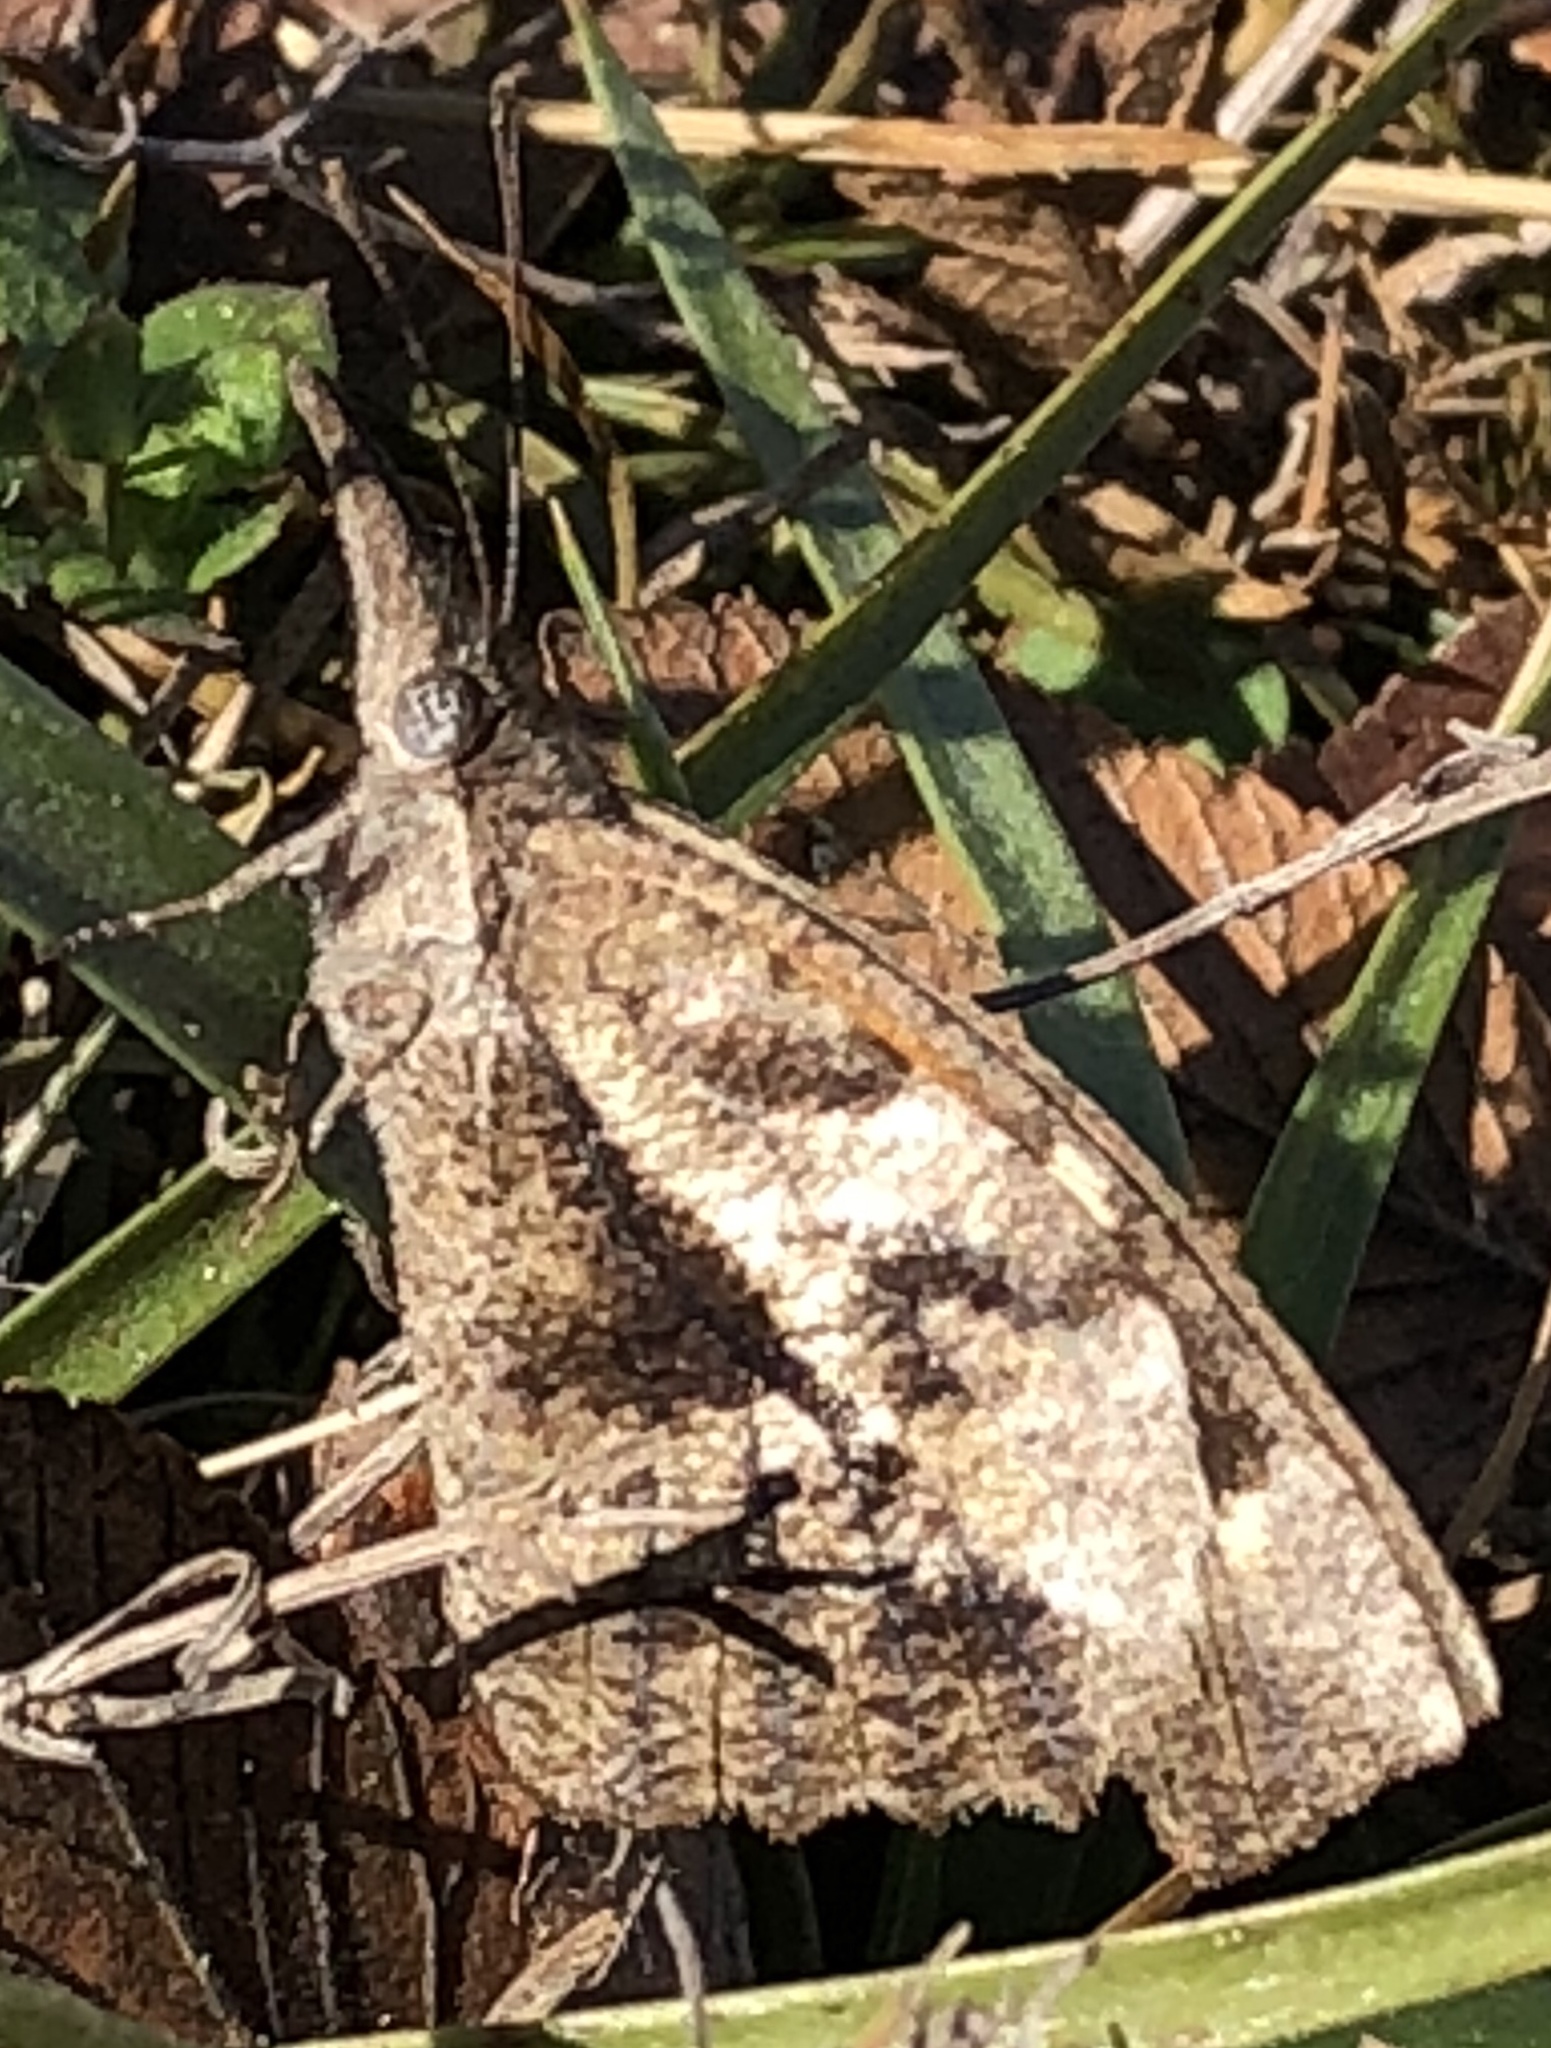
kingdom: Animalia
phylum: Arthropoda
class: Insecta
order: Lepidoptera
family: Nymphalidae
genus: Libytheana
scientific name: Libytheana carinenta
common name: American snout
